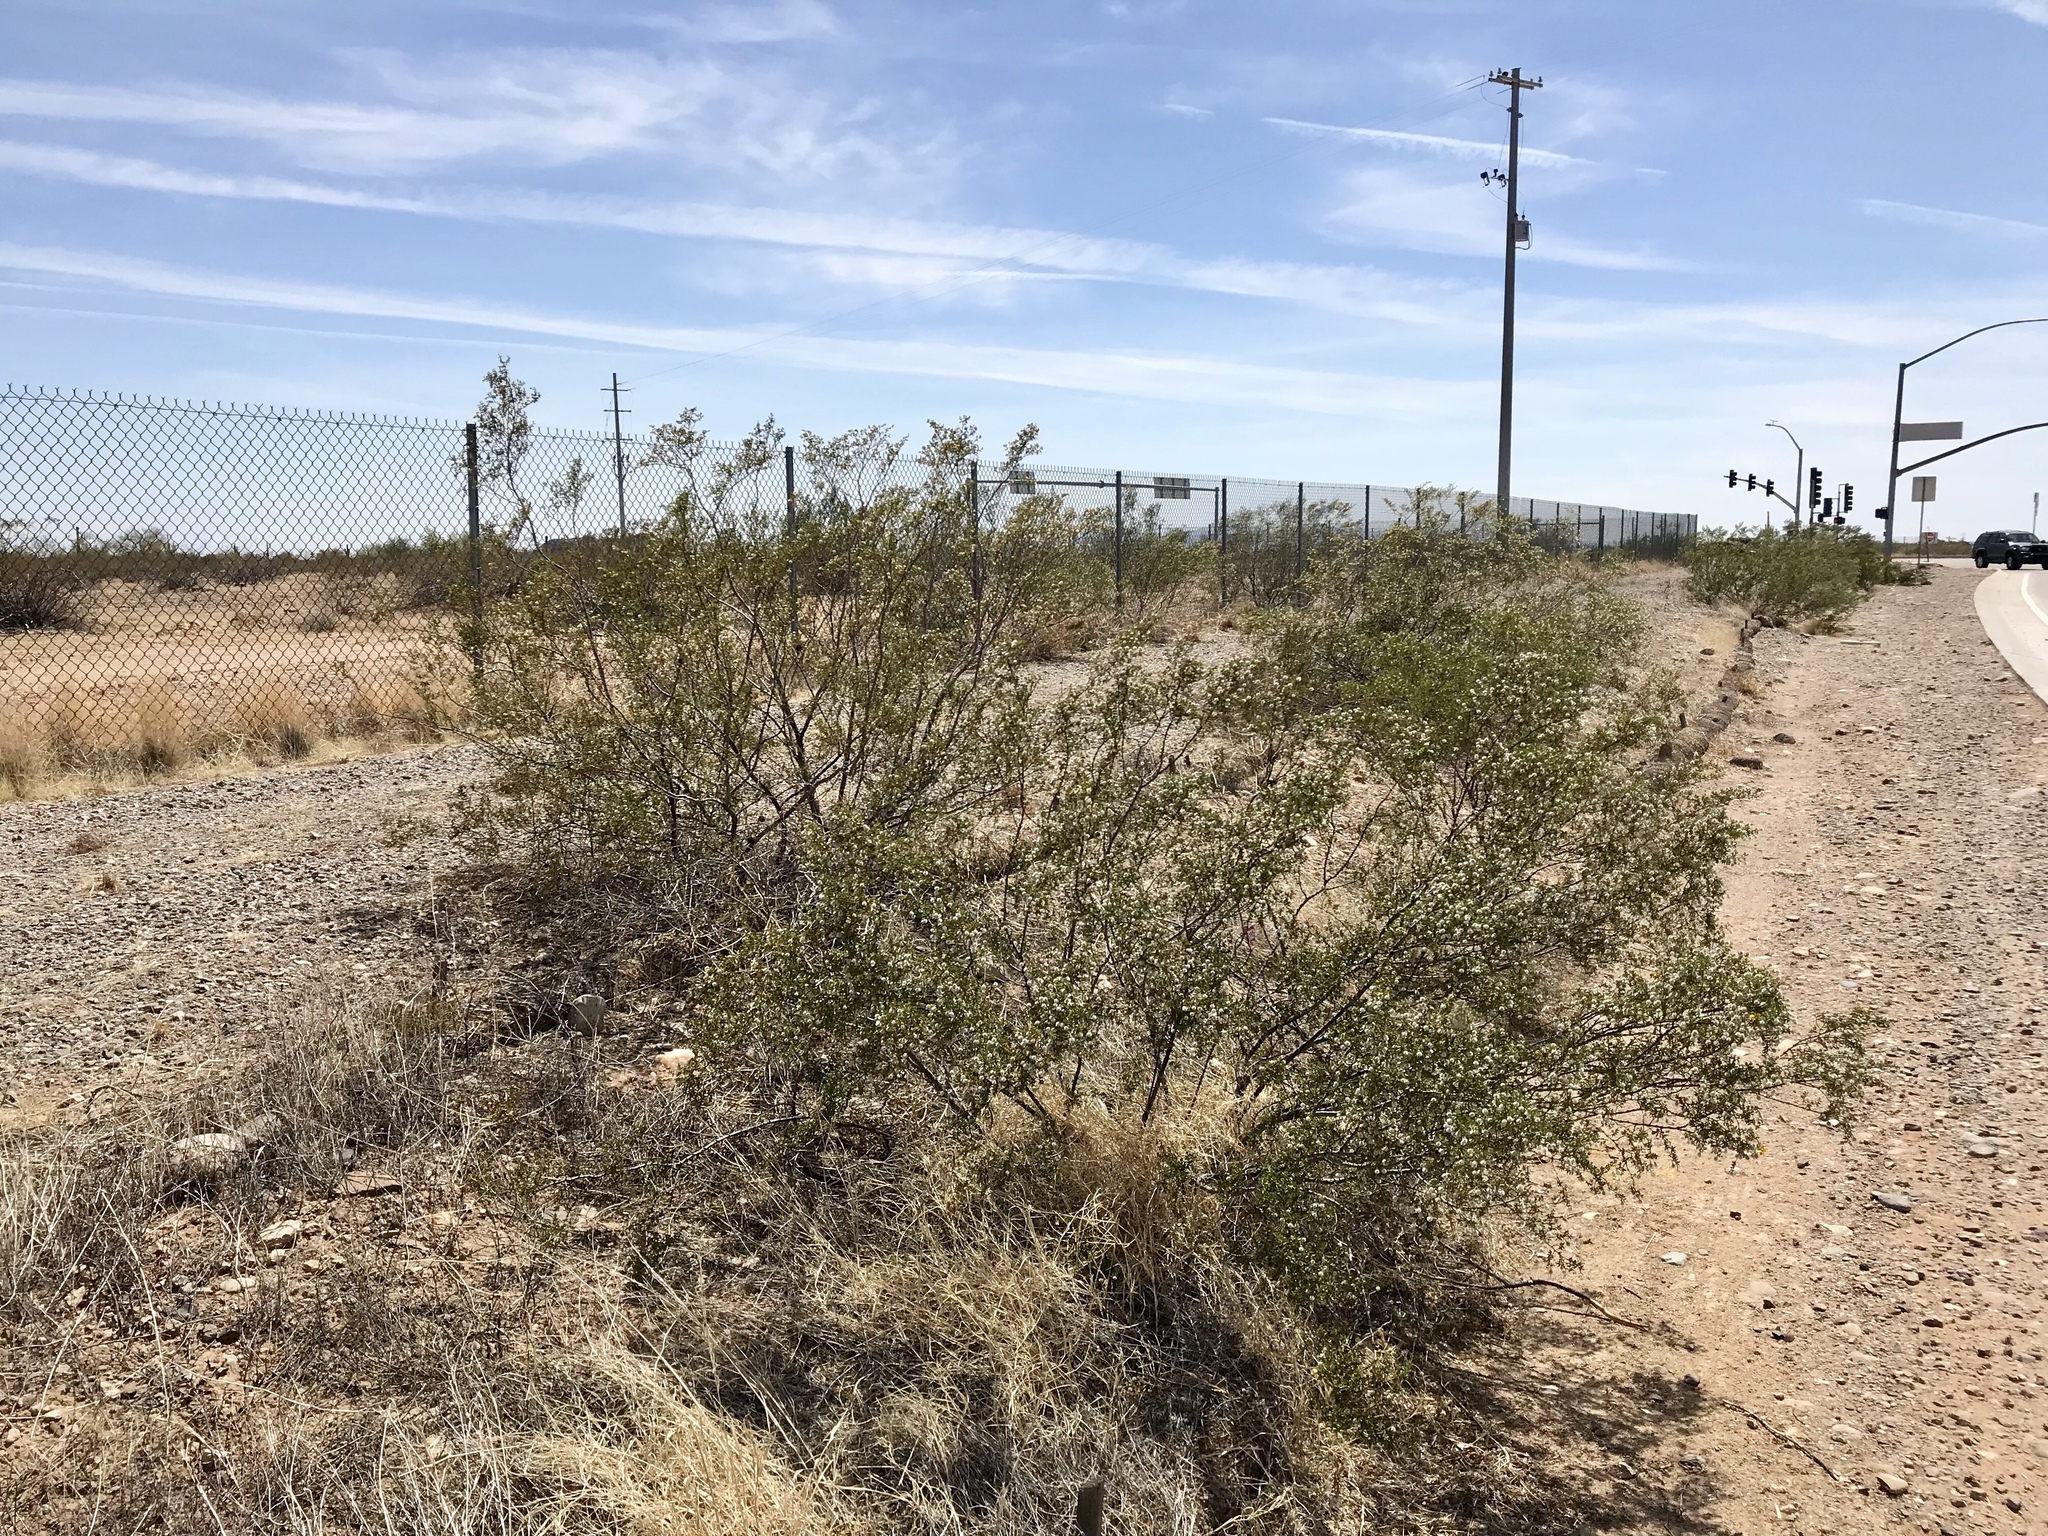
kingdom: Plantae
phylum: Tracheophyta
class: Magnoliopsida
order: Zygophyllales
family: Zygophyllaceae
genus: Larrea
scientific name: Larrea tridentata
